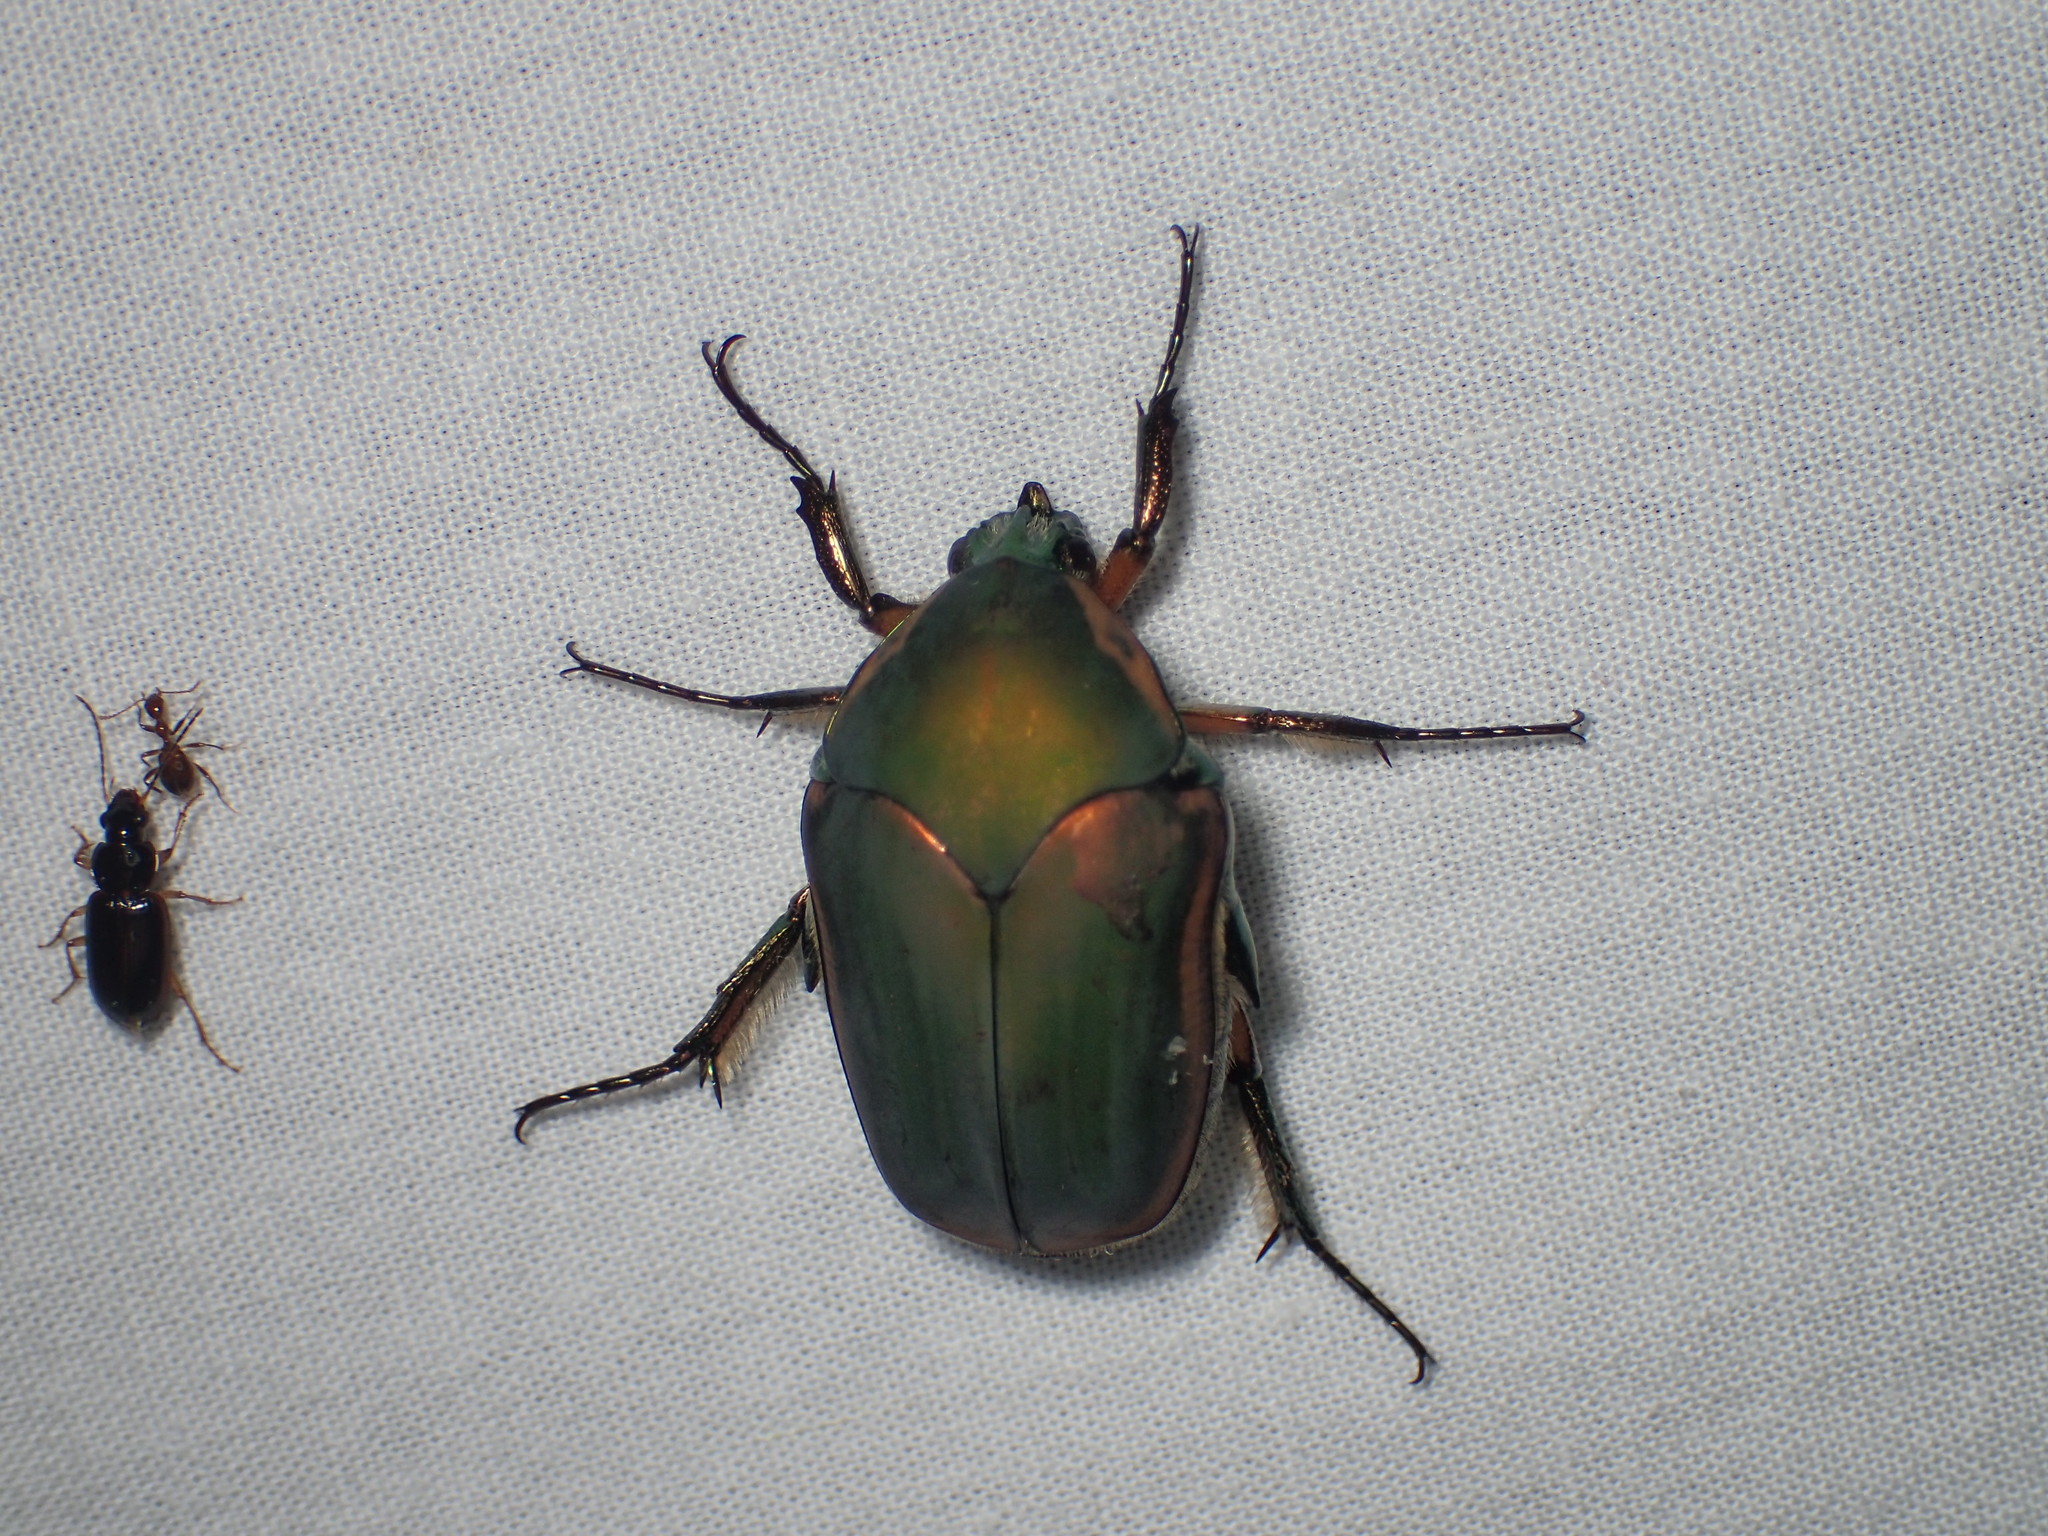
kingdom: Animalia
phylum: Arthropoda
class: Insecta
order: Coleoptera
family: Scarabaeidae
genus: Cotinis
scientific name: Cotinis nitida
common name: Common green june beetle
